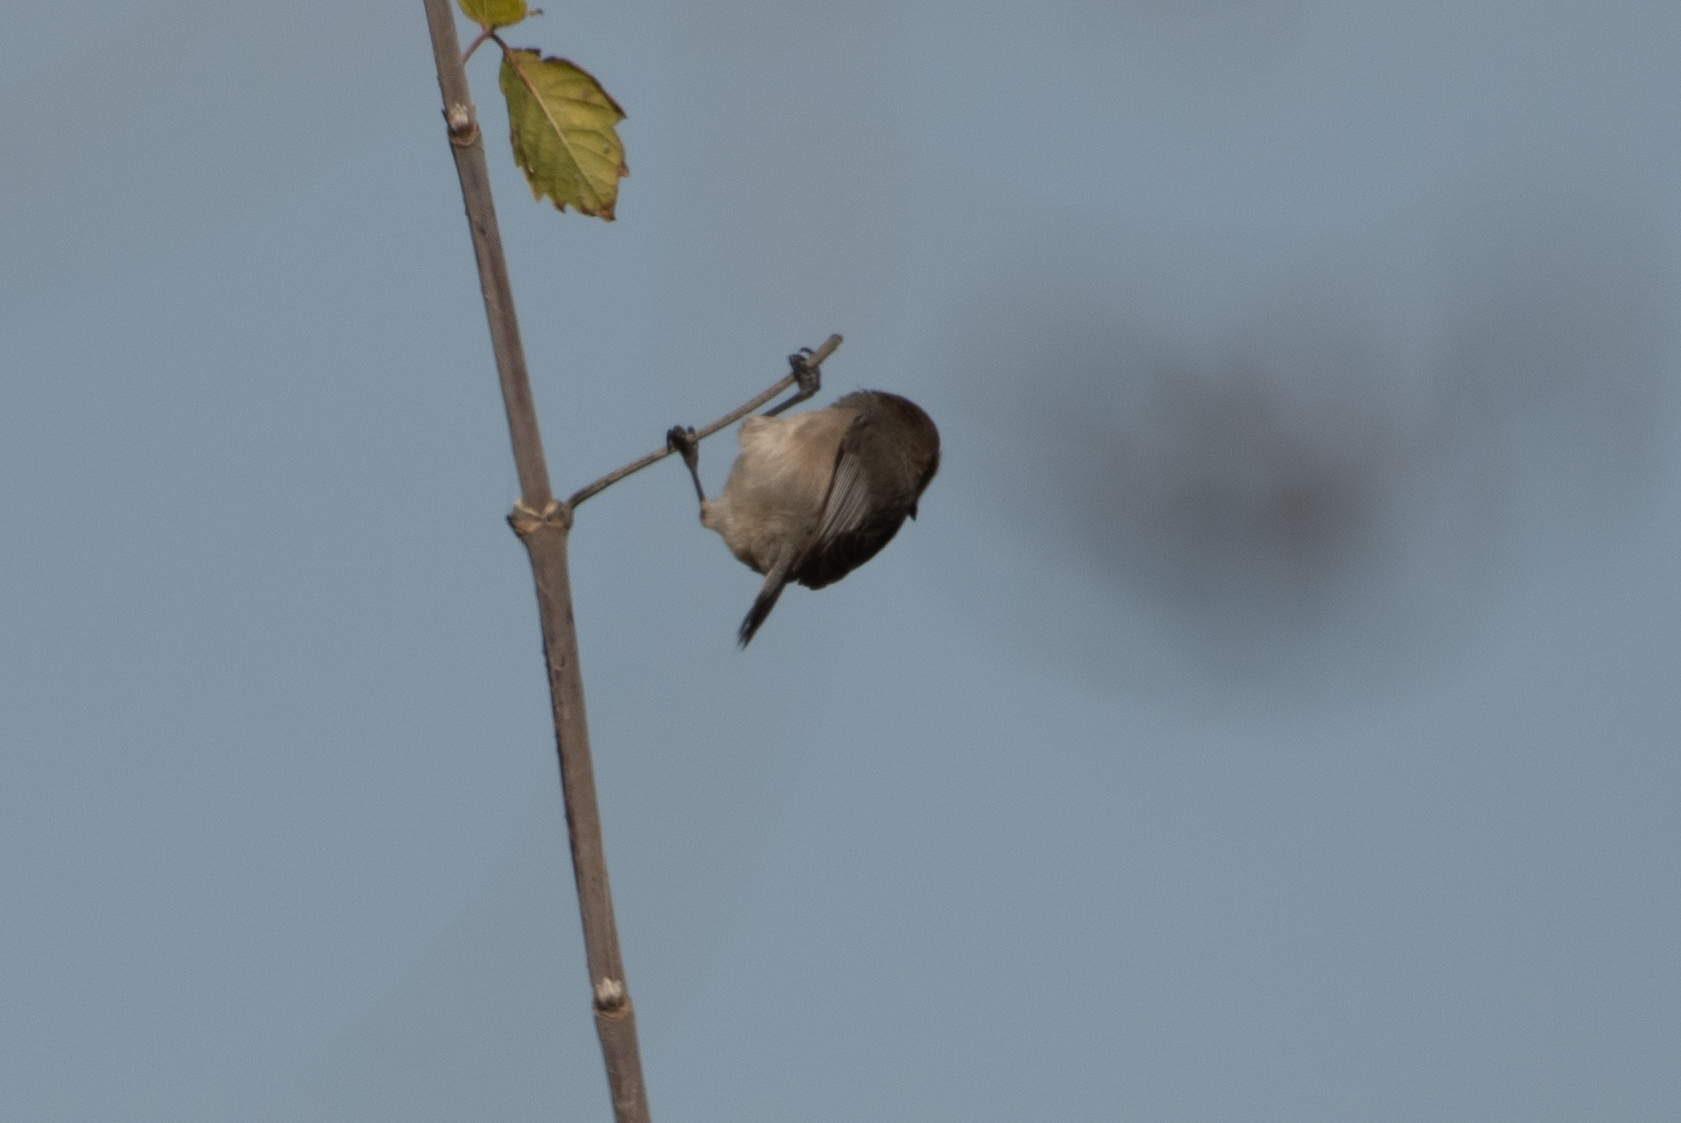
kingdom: Animalia
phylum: Chordata
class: Aves
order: Passeriformes
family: Aegithalidae
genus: Psaltriparus
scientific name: Psaltriparus minimus
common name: American bushtit
